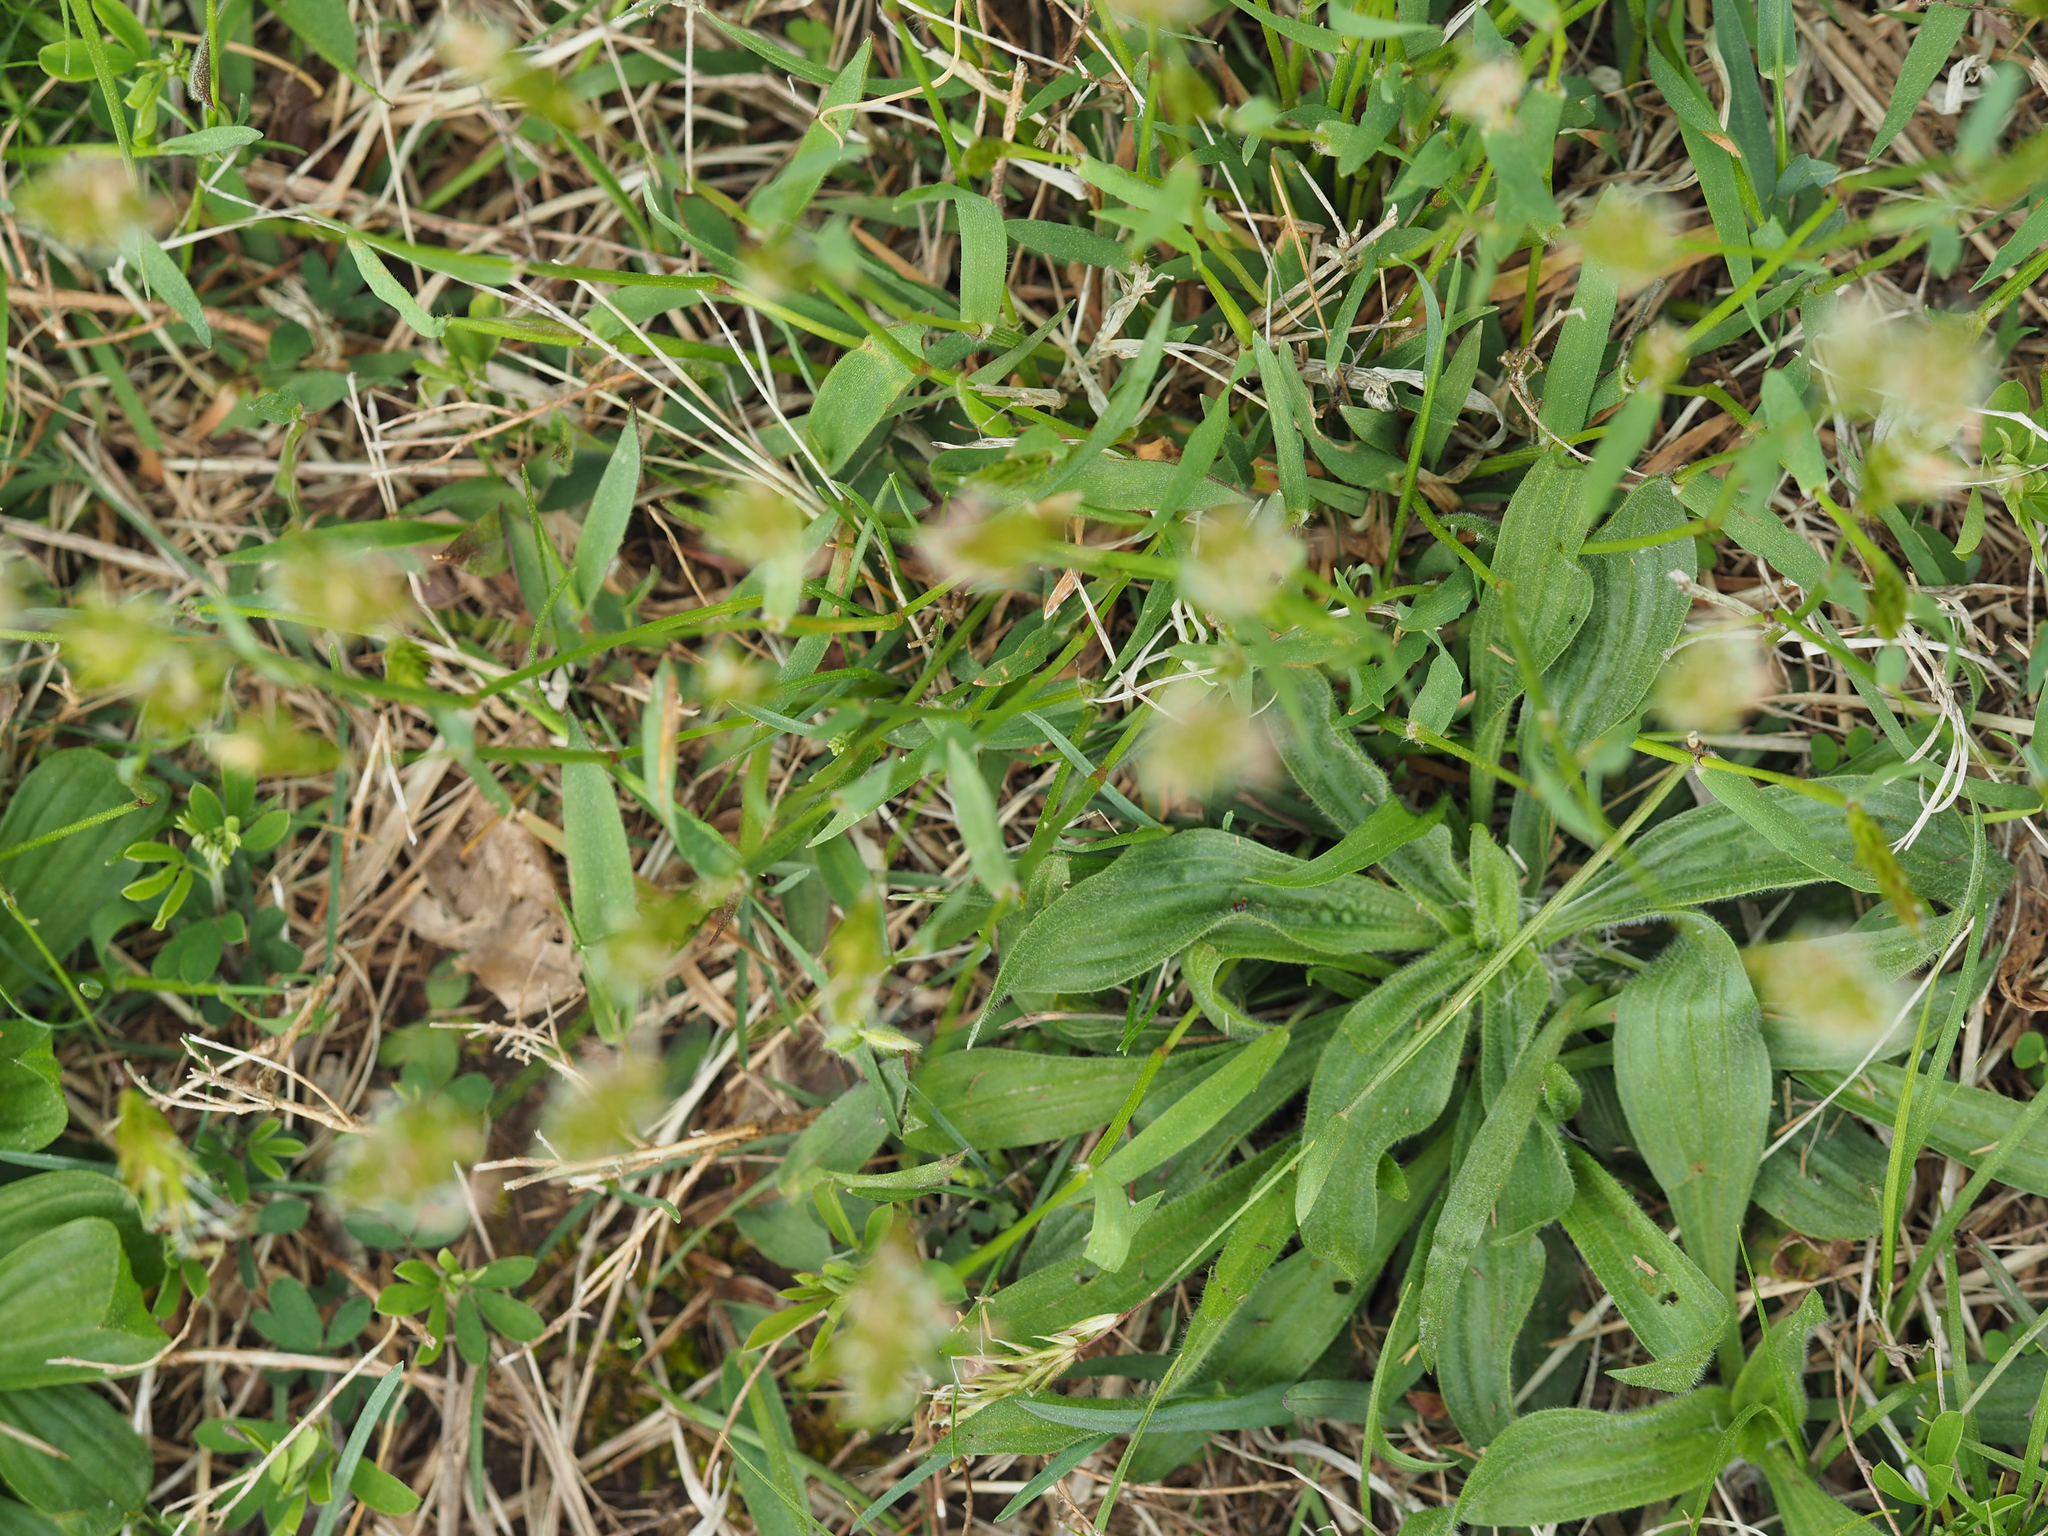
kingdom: Plantae
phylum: Tracheophyta
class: Liliopsida
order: Poales
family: Poaceae
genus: Anthoxanthum
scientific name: Anthoxanthum odoratum
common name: Sweet vernalgrass
